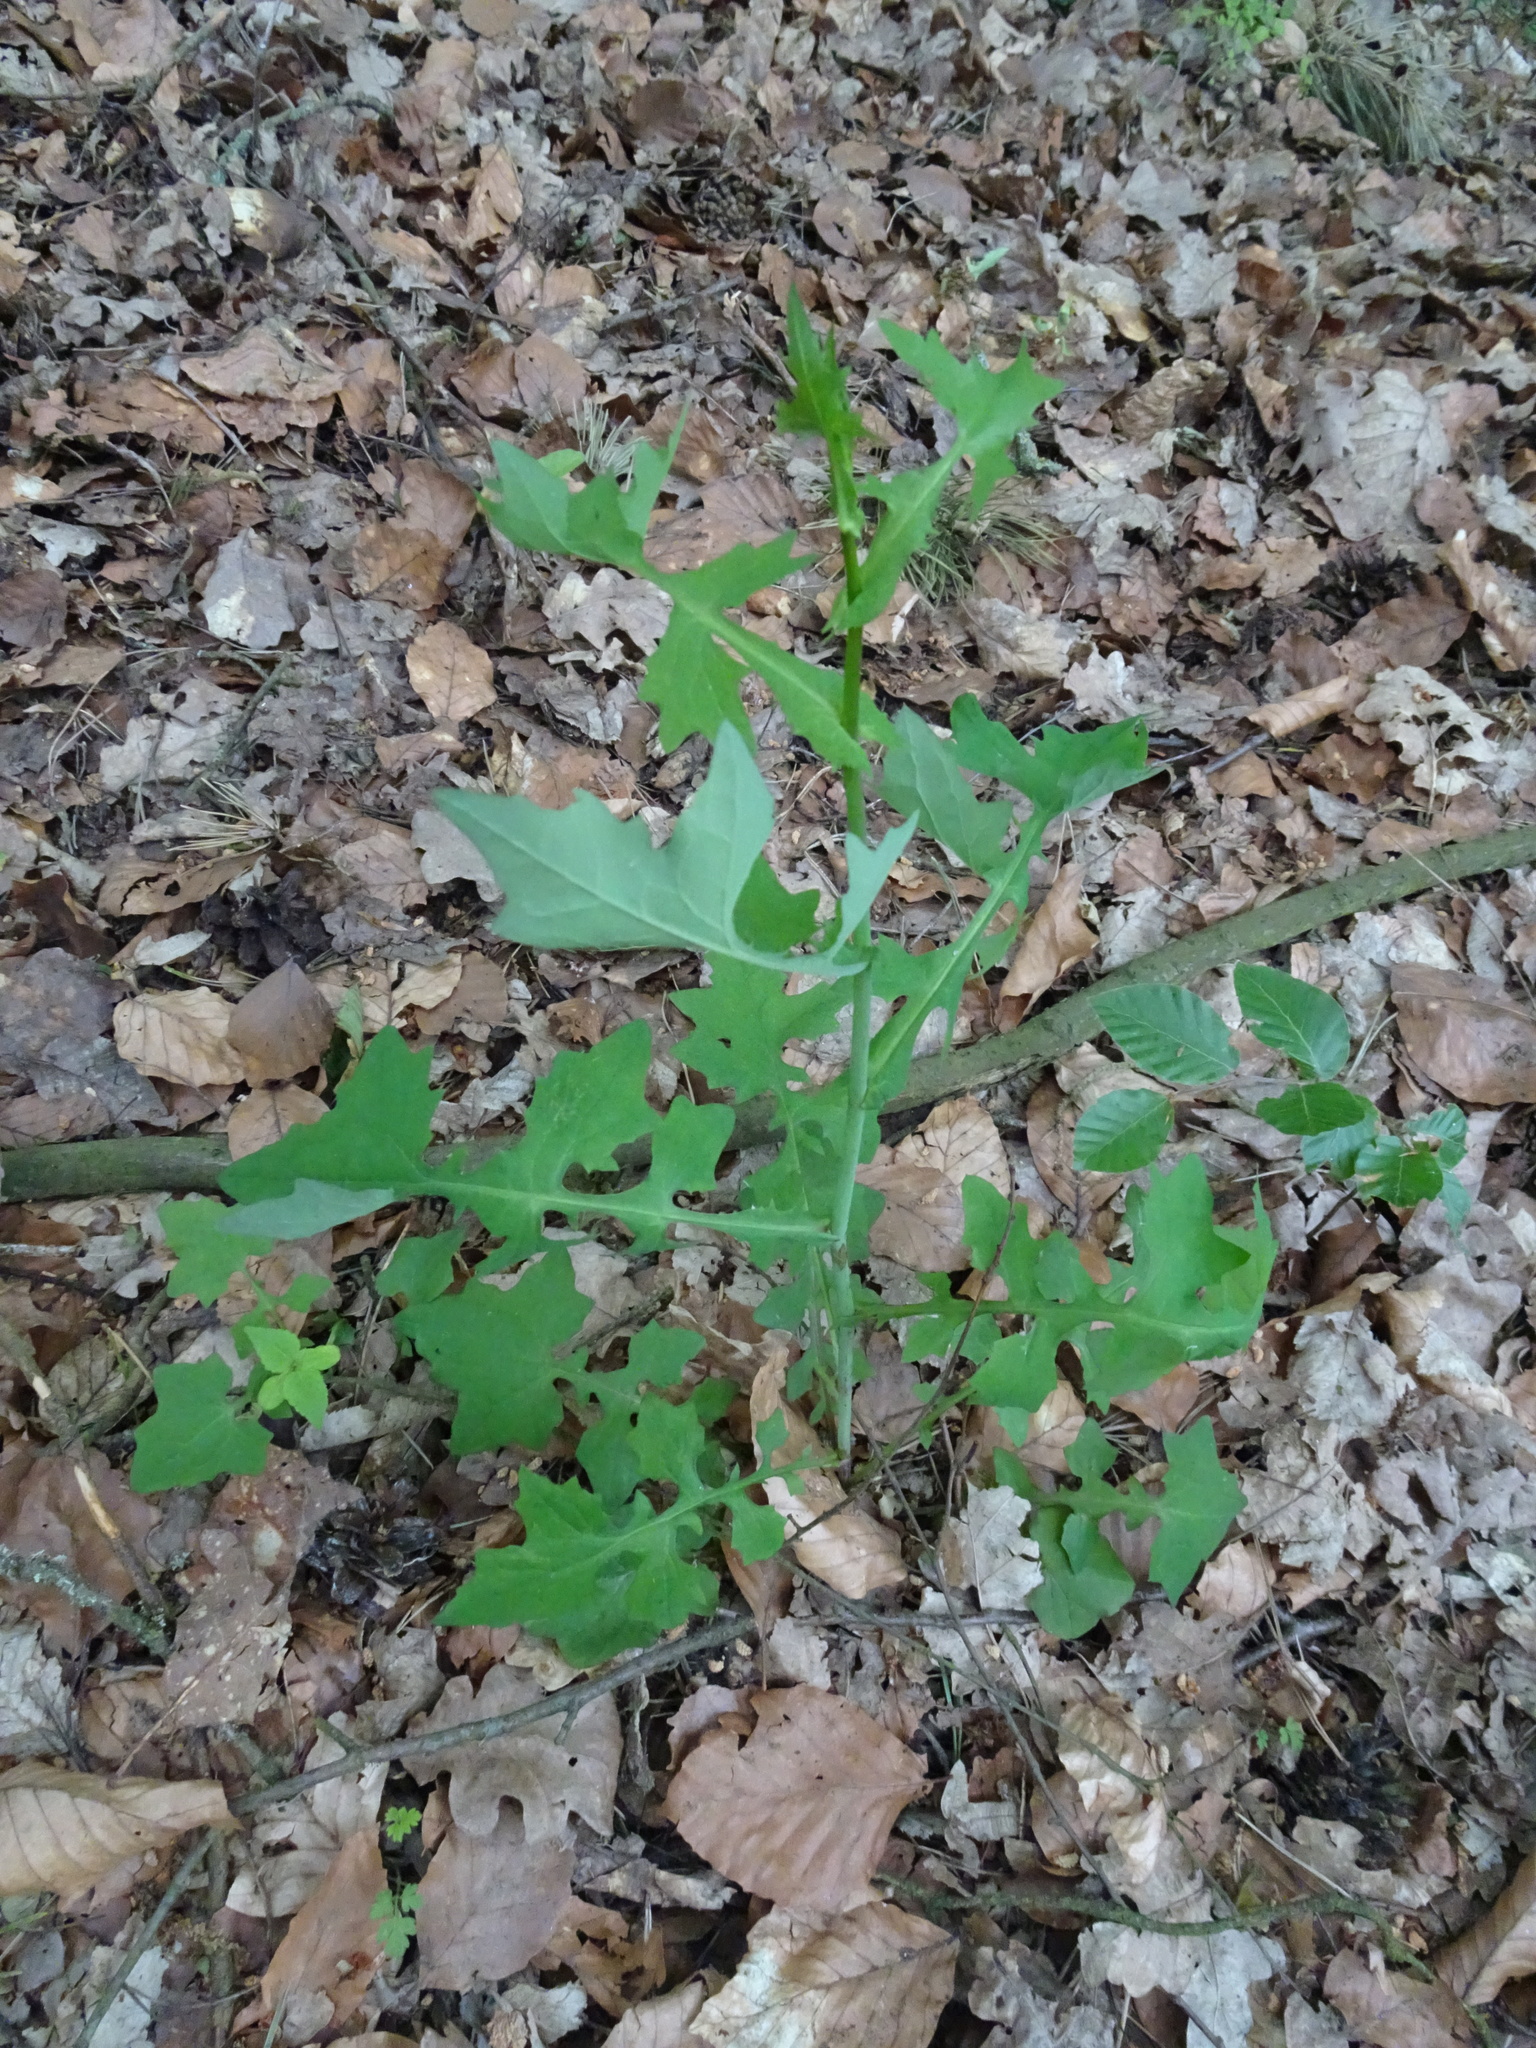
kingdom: Plantae
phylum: Tracheophyta
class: Magnoliopsida
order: Asterales
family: Asteraceae
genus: Mycelis
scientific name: Mycelis muralis
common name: Wall lettuce
